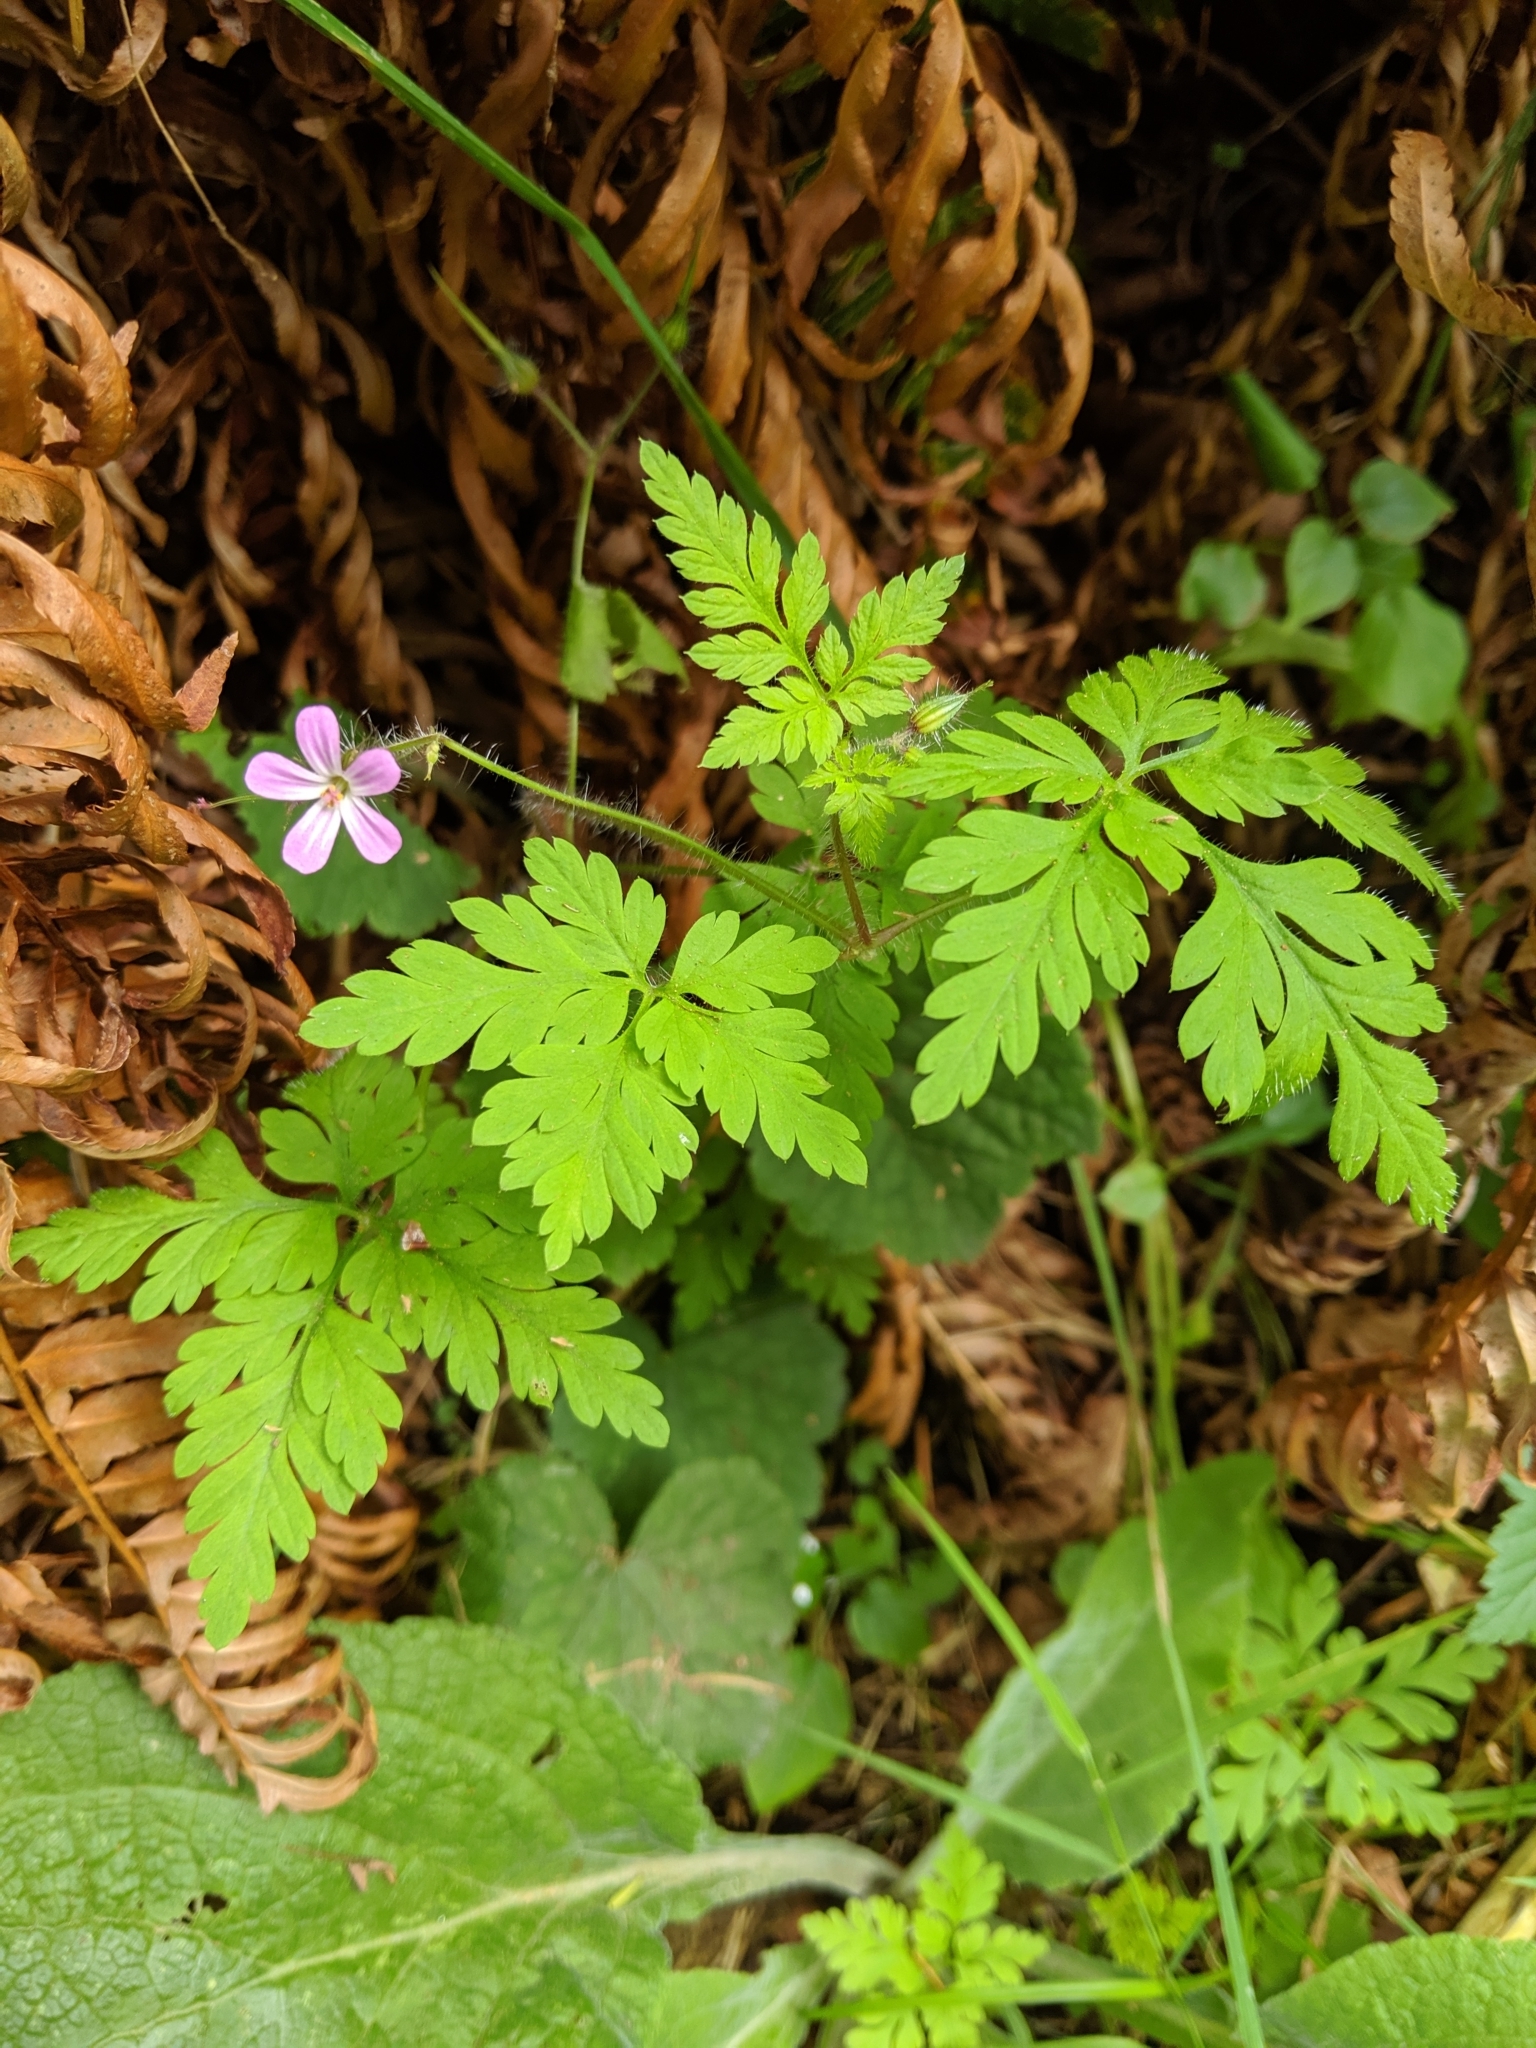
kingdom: Plantae
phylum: Tracheophyta
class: Magnoliopsida
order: Geraniales
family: Geraniaceae
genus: Geranium
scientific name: Geranium robertianum
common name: Herb-robert
